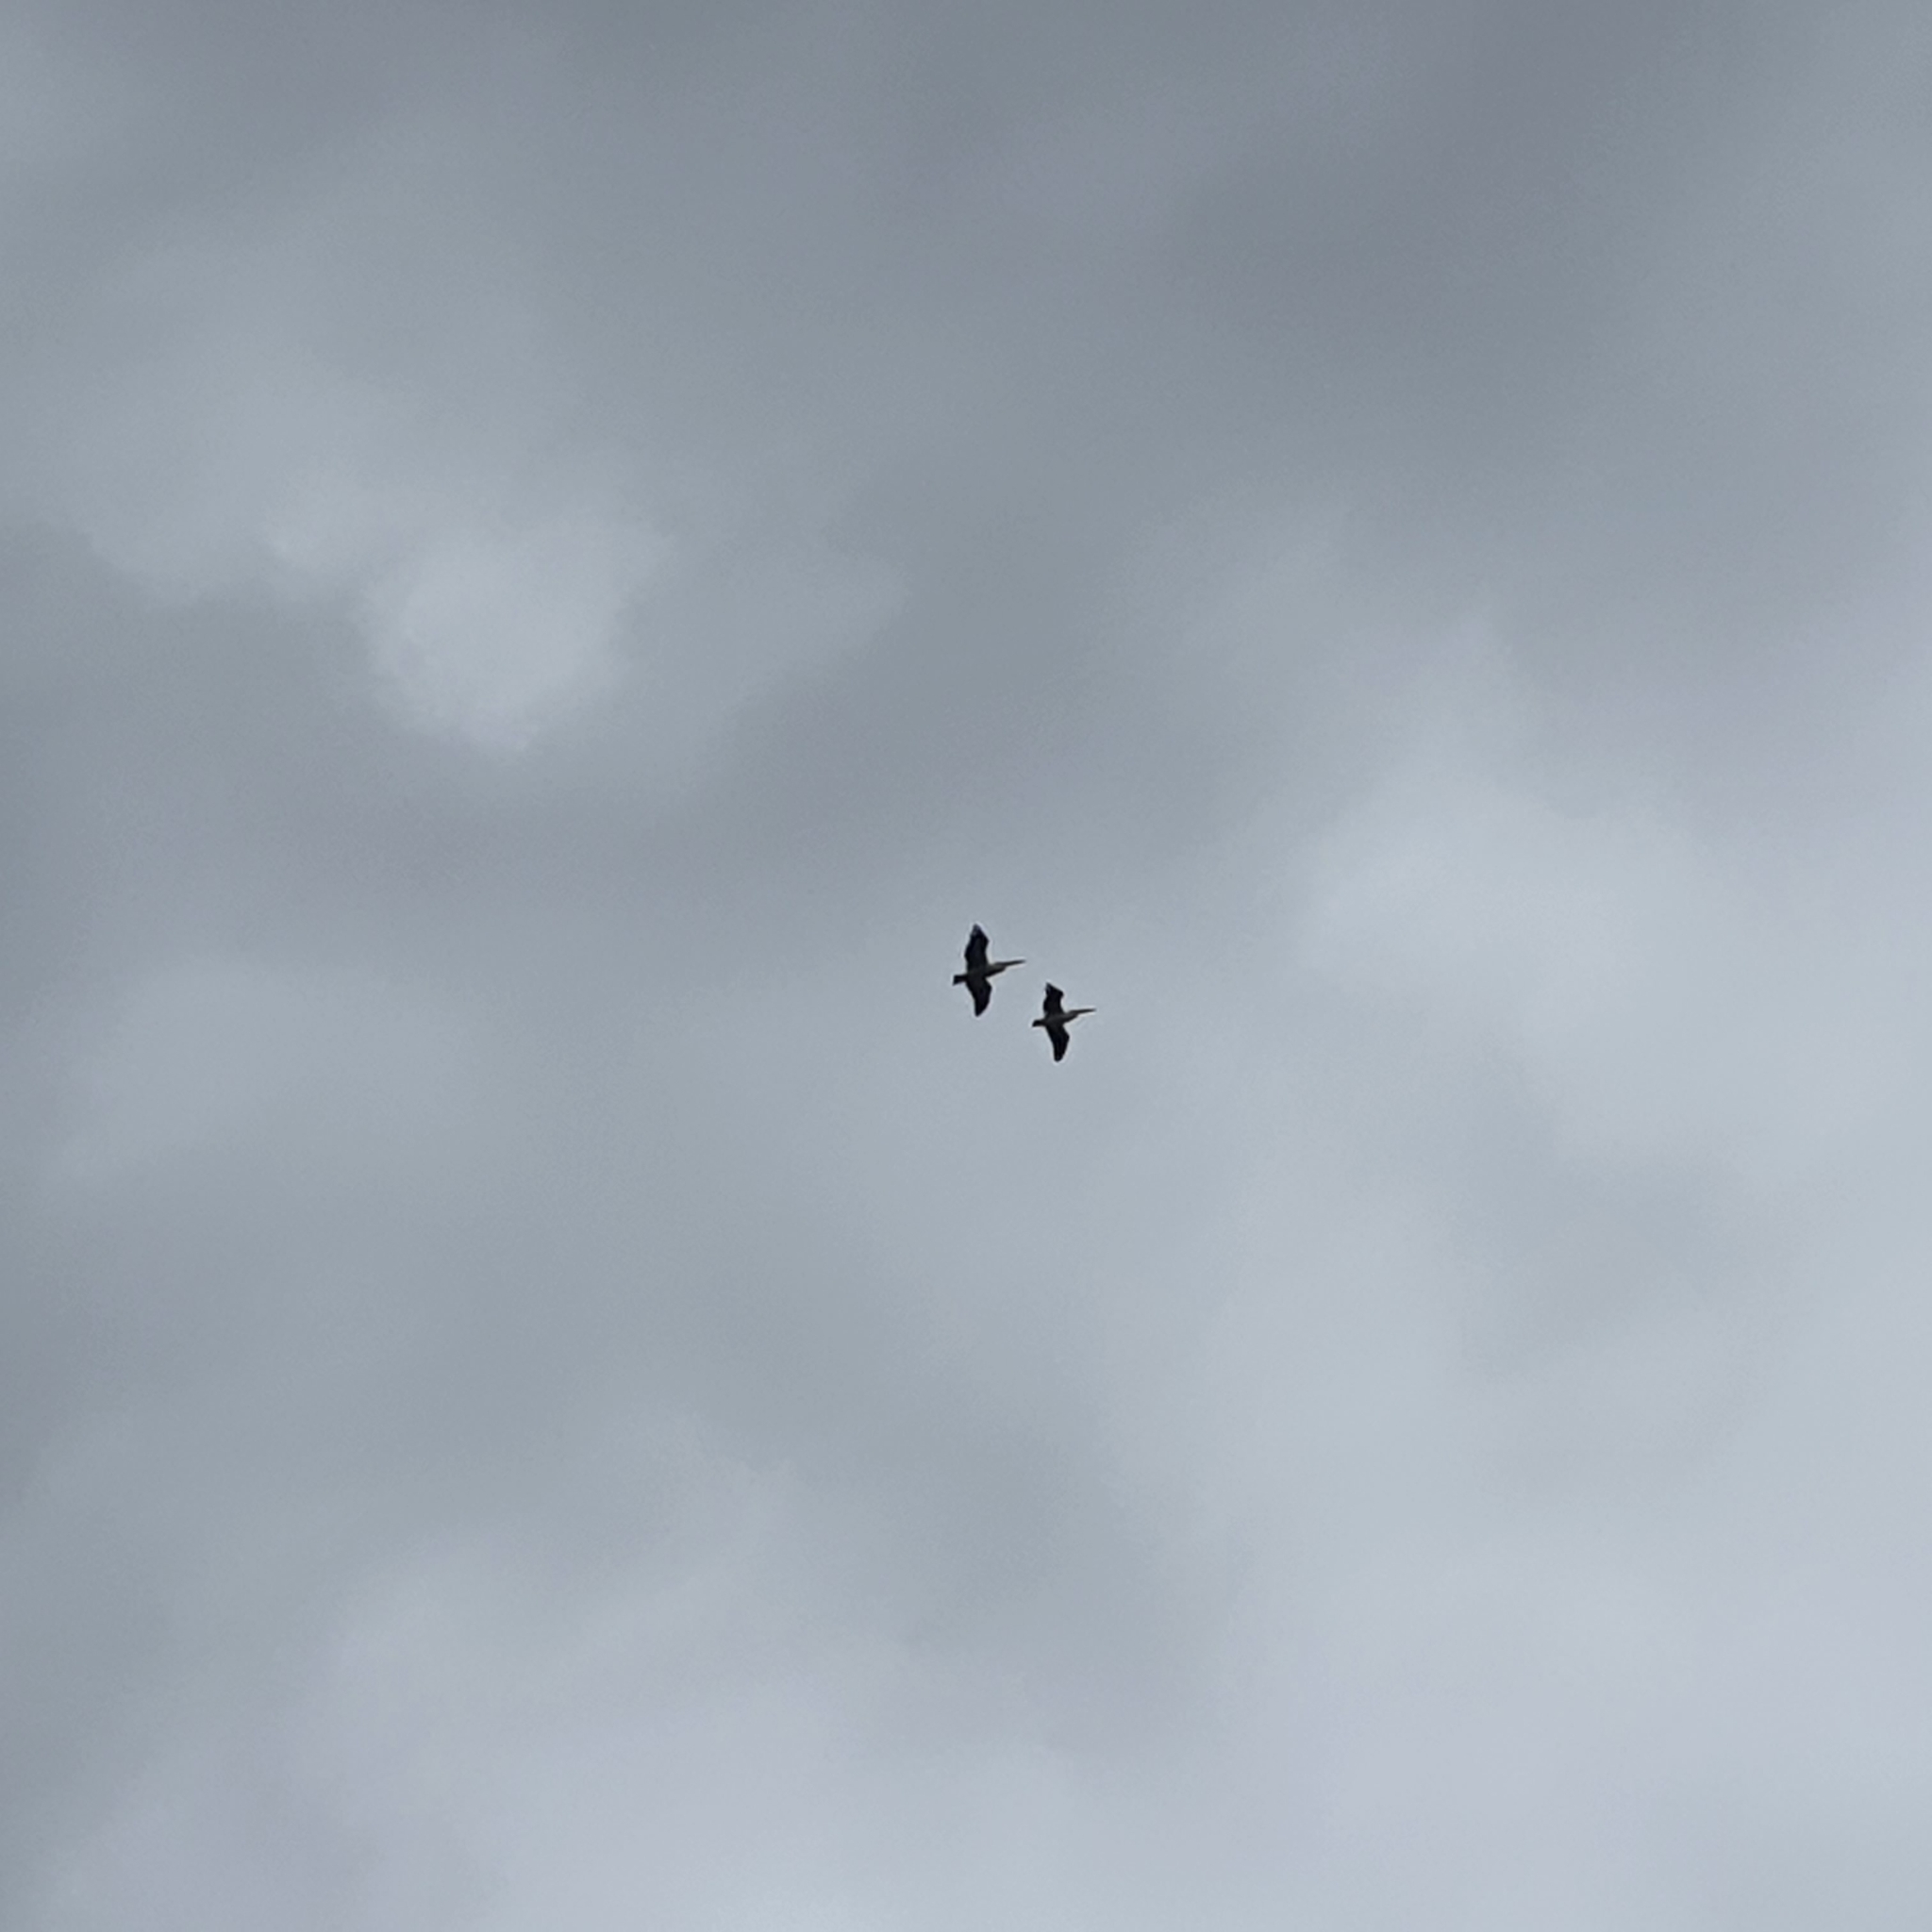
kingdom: Animalia
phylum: Chordata
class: Aves
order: Pelecaniformes
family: Pelecanidae
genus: Pelecanus
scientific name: Pelecanus conspicillatus
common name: Australian pelican
